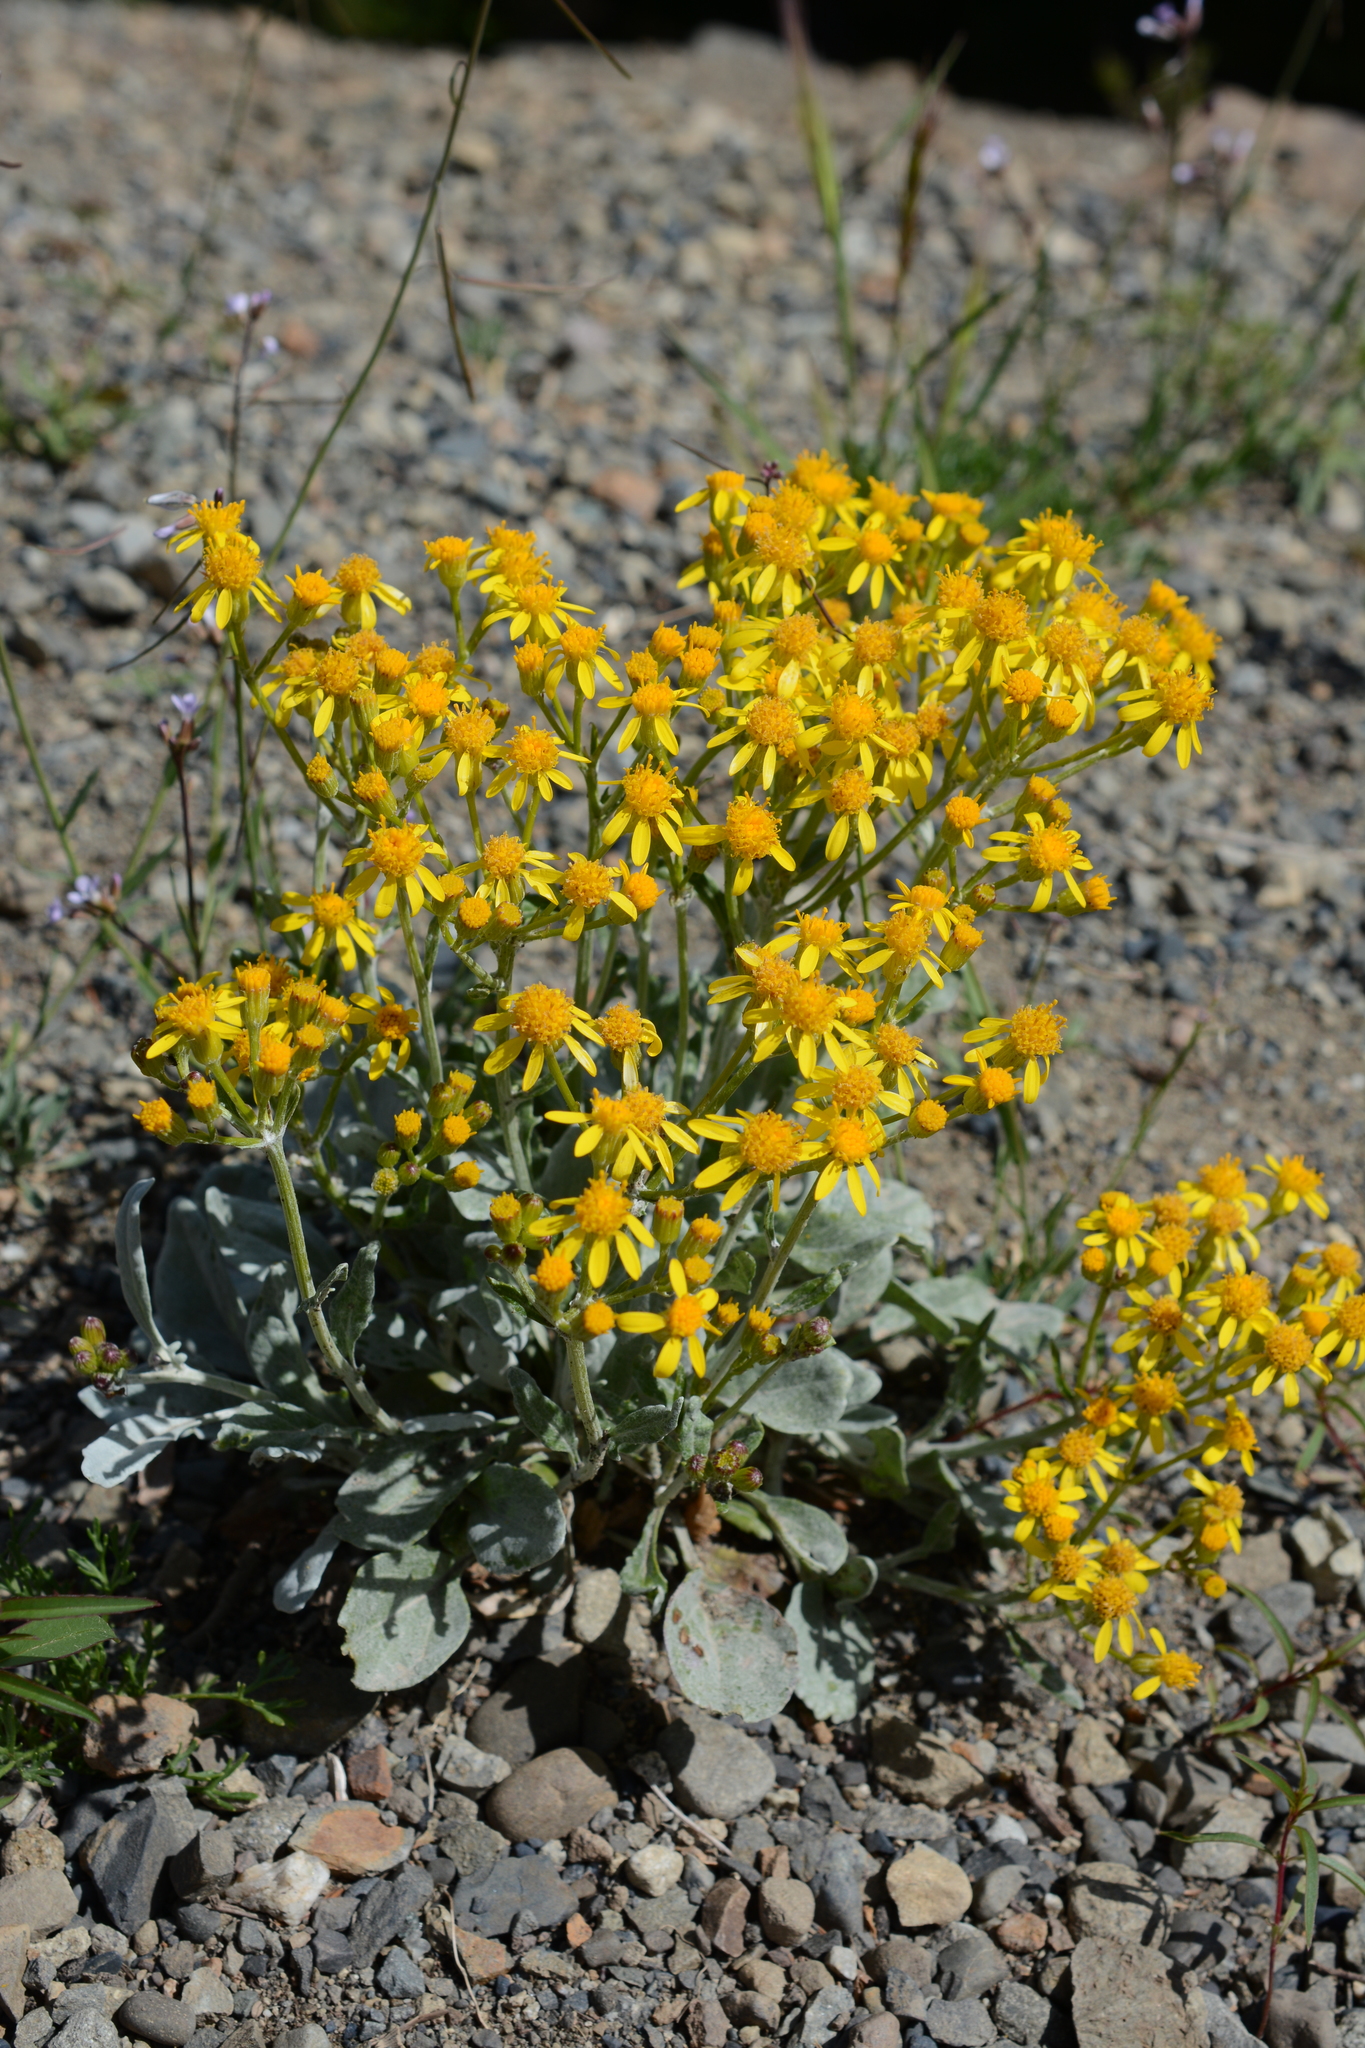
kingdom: Plantae
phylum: Tracheophyta
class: Magnoliopsida
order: Asterales
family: Asteraceae
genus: Packera
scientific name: Packera cana
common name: Woolly groundsel
